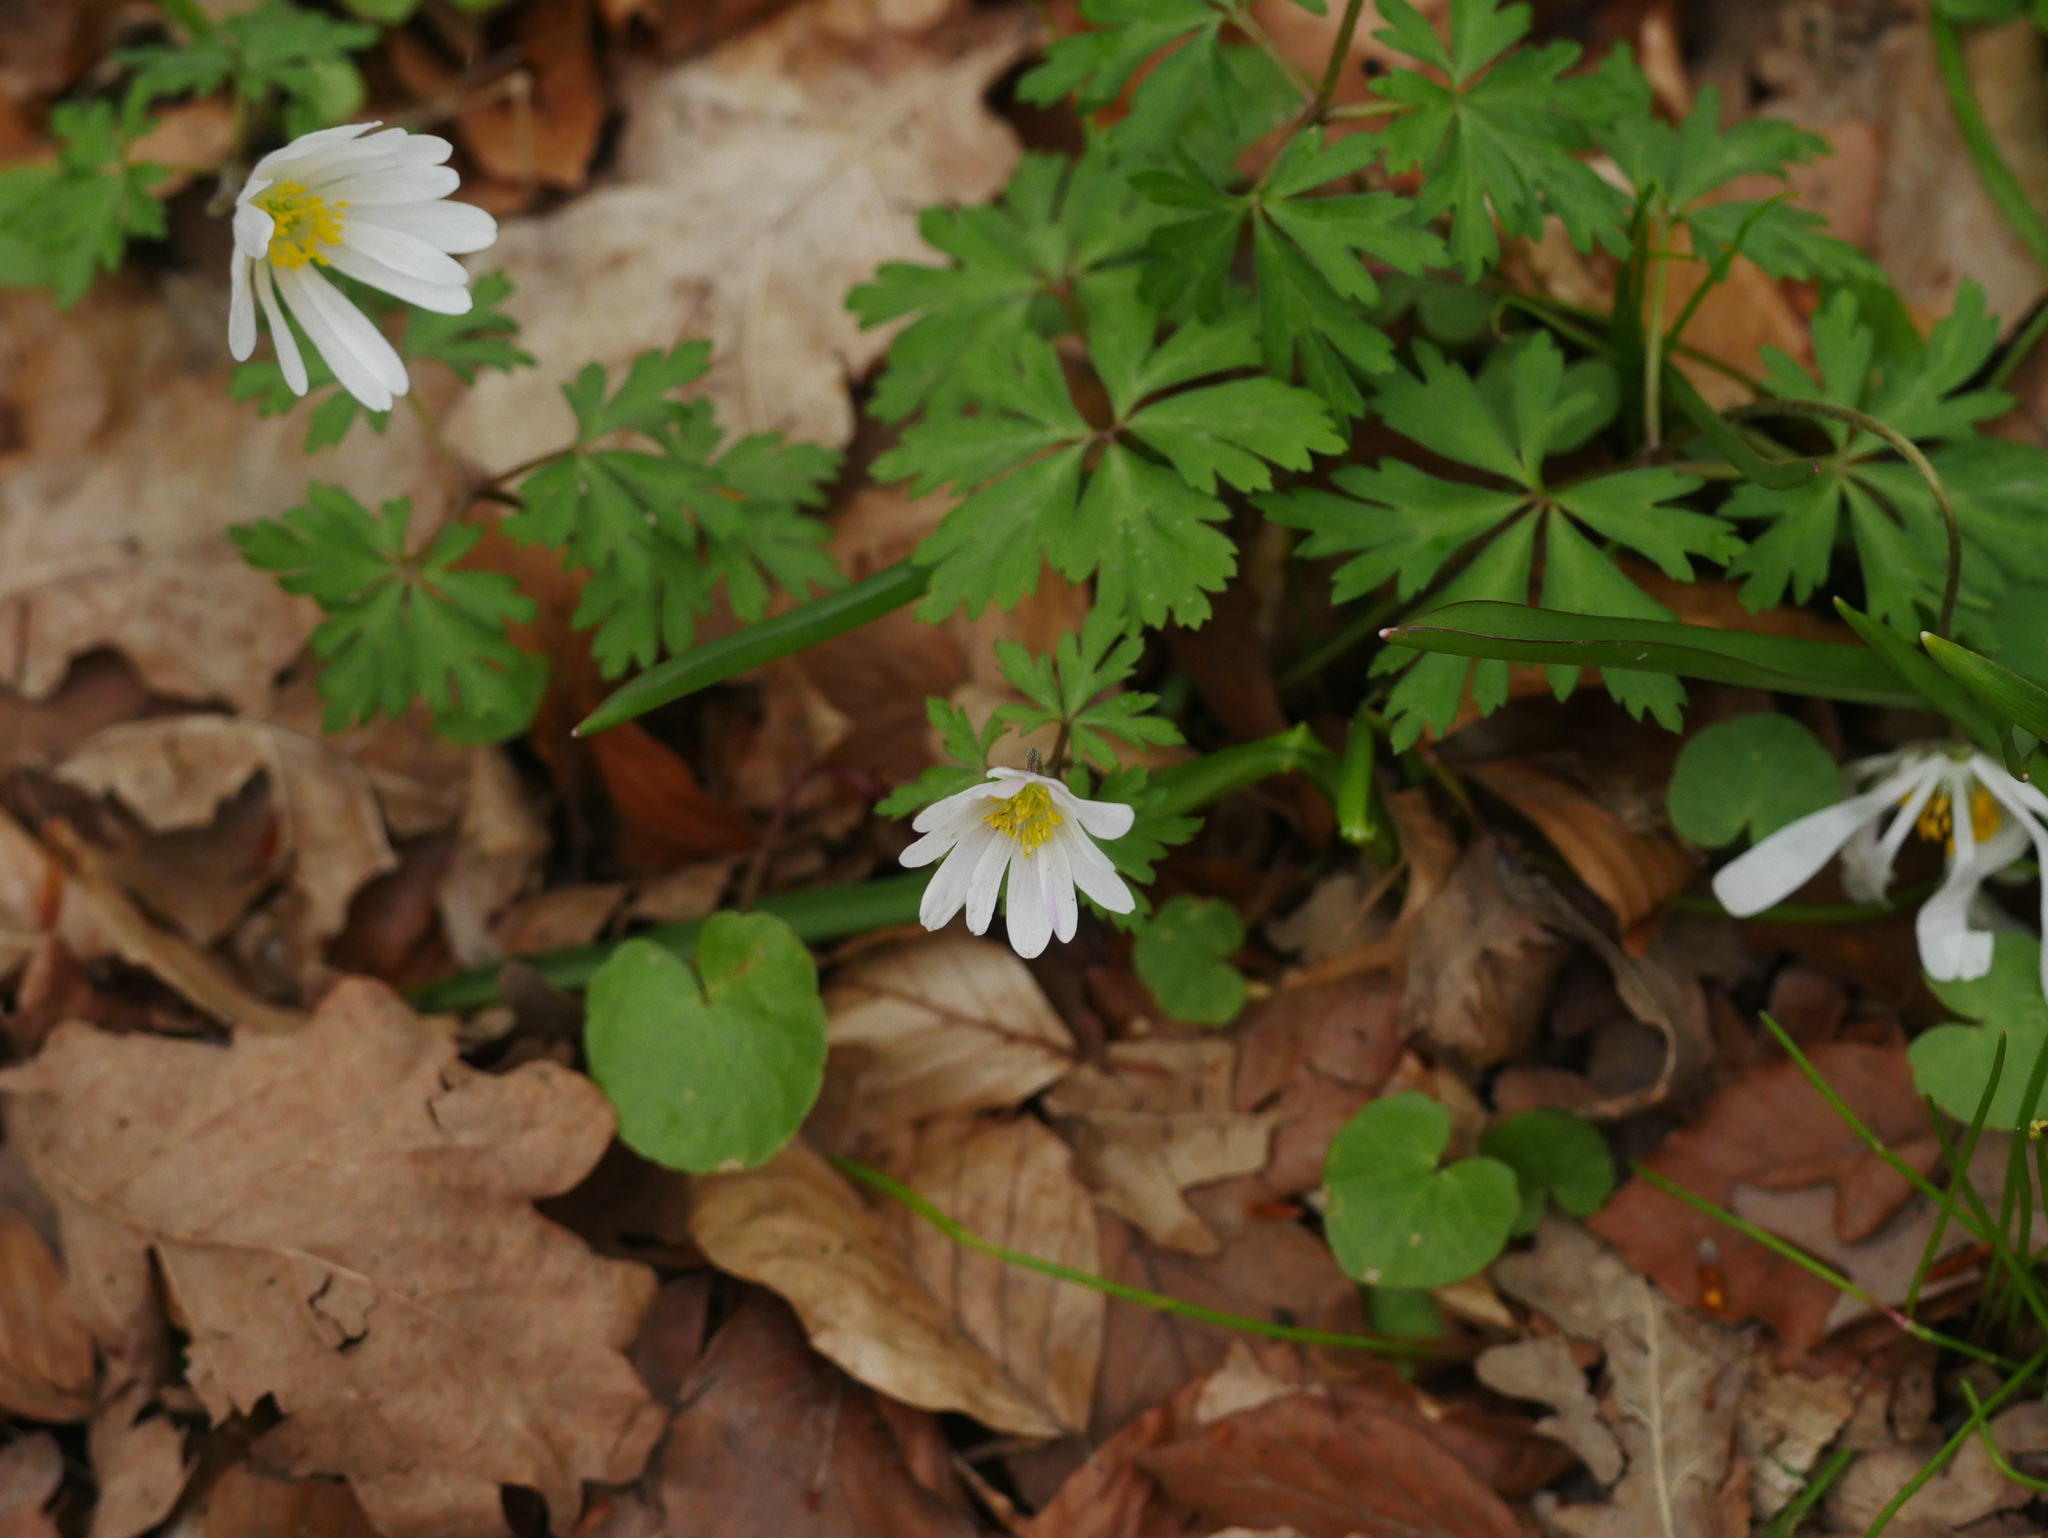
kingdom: Plantae
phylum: Tracheophyta
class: Magnoliopsida
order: Ranunculales
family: Ranunculaceae
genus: Anemone
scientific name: Anemone apennina
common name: Blue anemone
